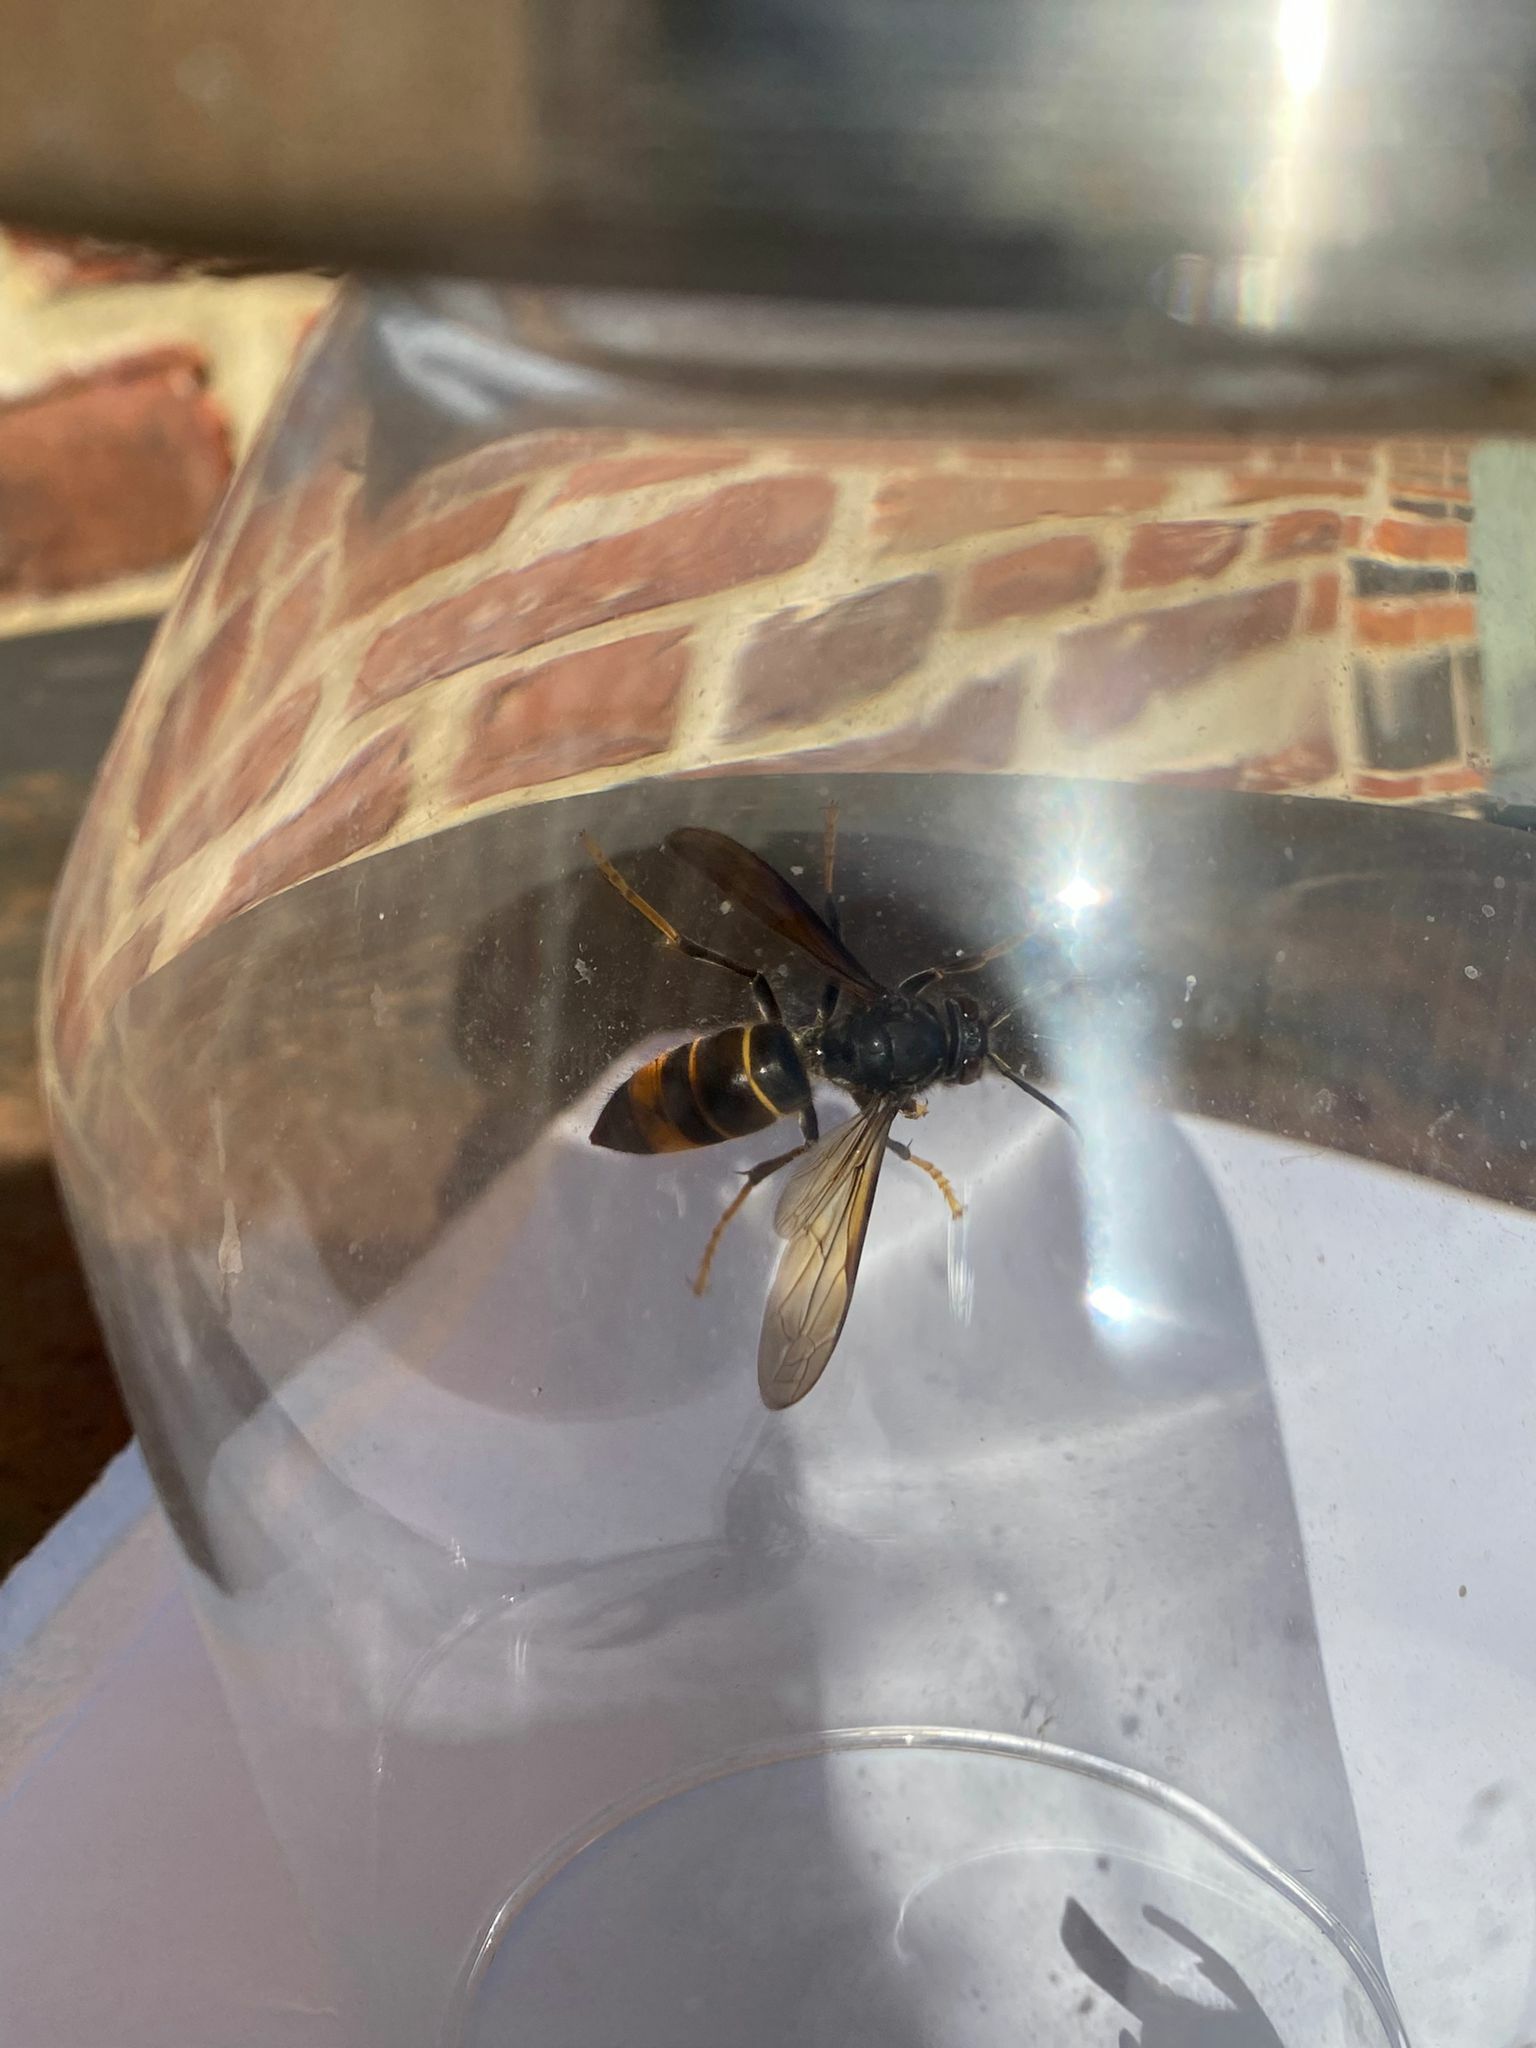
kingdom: Animalia
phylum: Arthropoda
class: Insecta
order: Hymenoptera
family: Vespidae
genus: Vespa
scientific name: Vespa velutina
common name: Asian hornet
